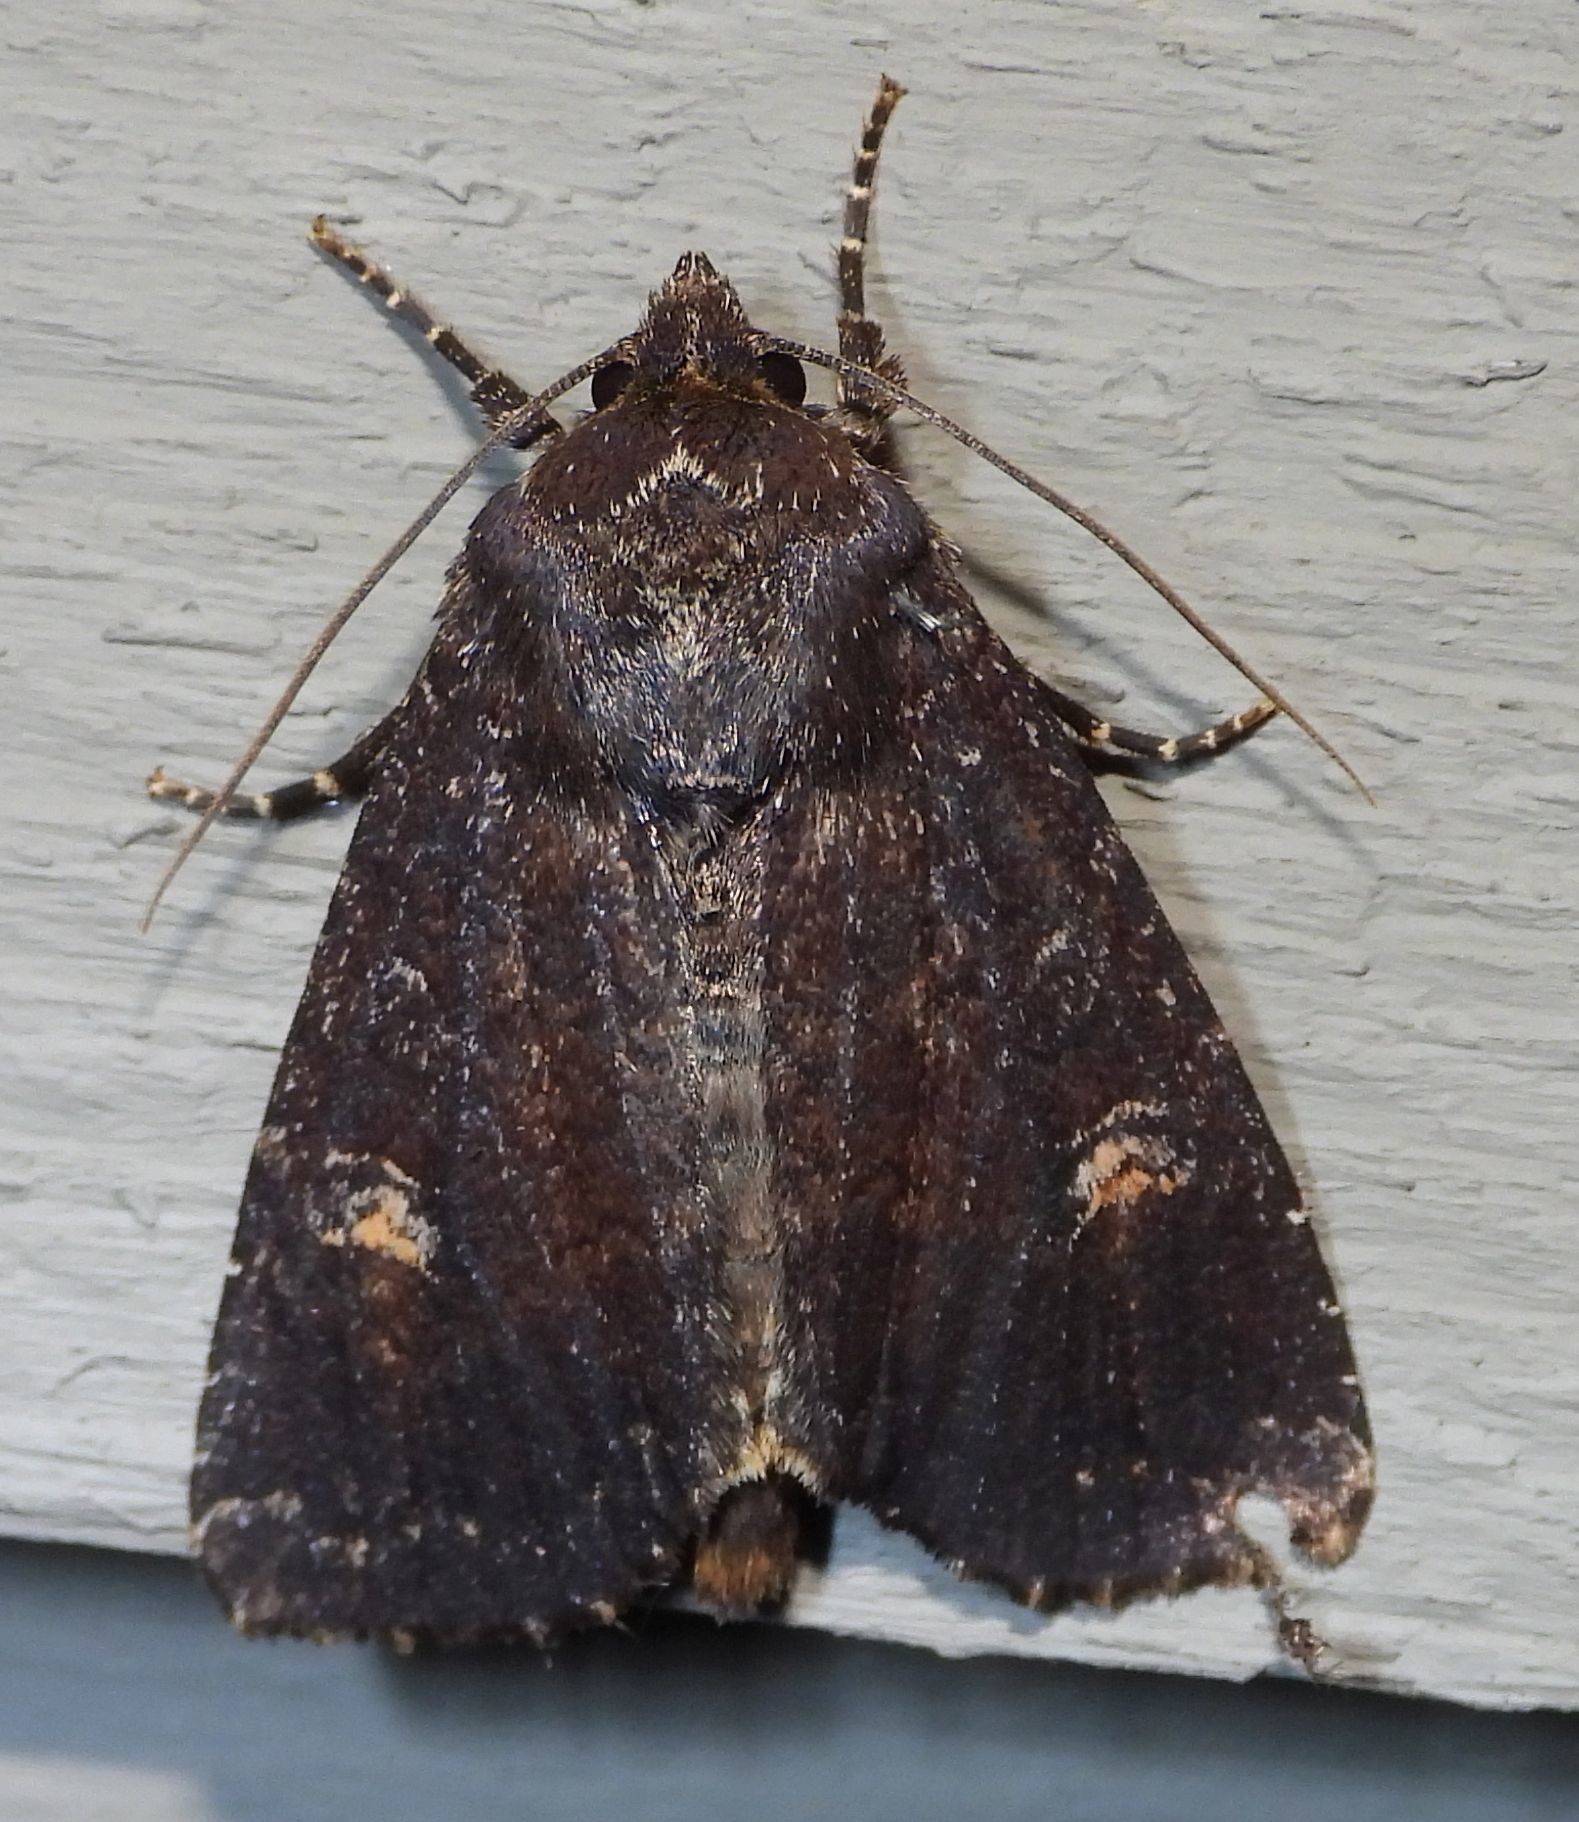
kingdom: Animalia
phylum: Arthropoda
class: Insecta
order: Lepidoptera
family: Noctuidae
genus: Apamea
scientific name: Apamea dubitans
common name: Doubtful apamea moth
